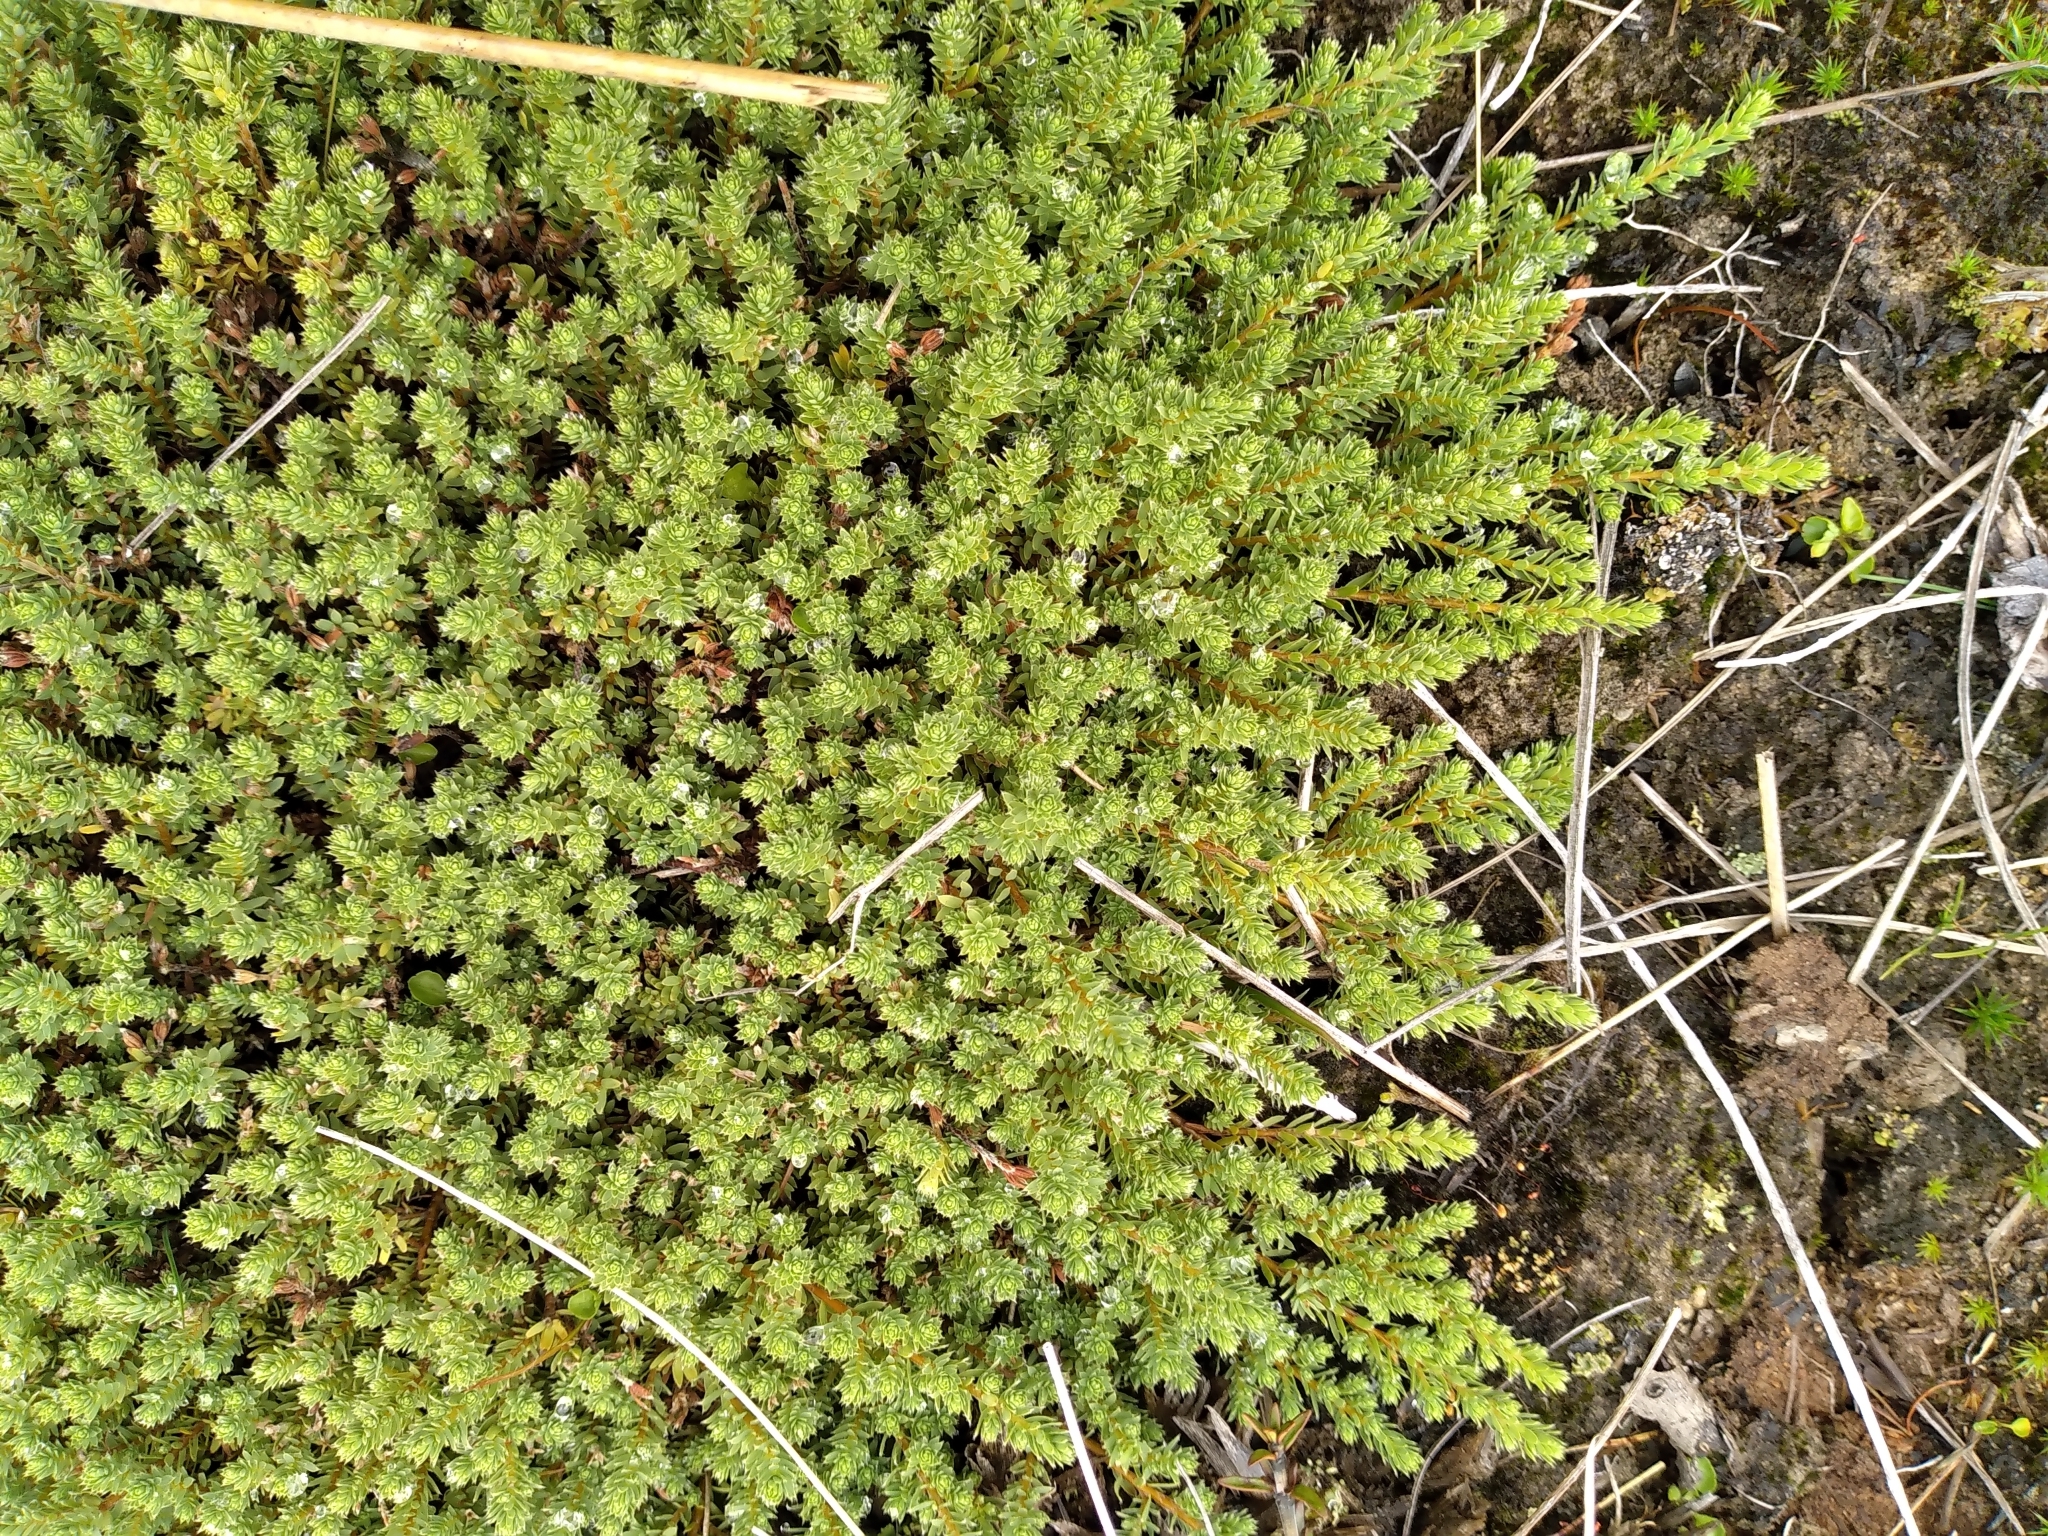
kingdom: Plantae
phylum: Tracheophyta
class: Magnoliopsida
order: Malvales
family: Thymelaeaceae
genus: Kelleria
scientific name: Kelleria laxa
